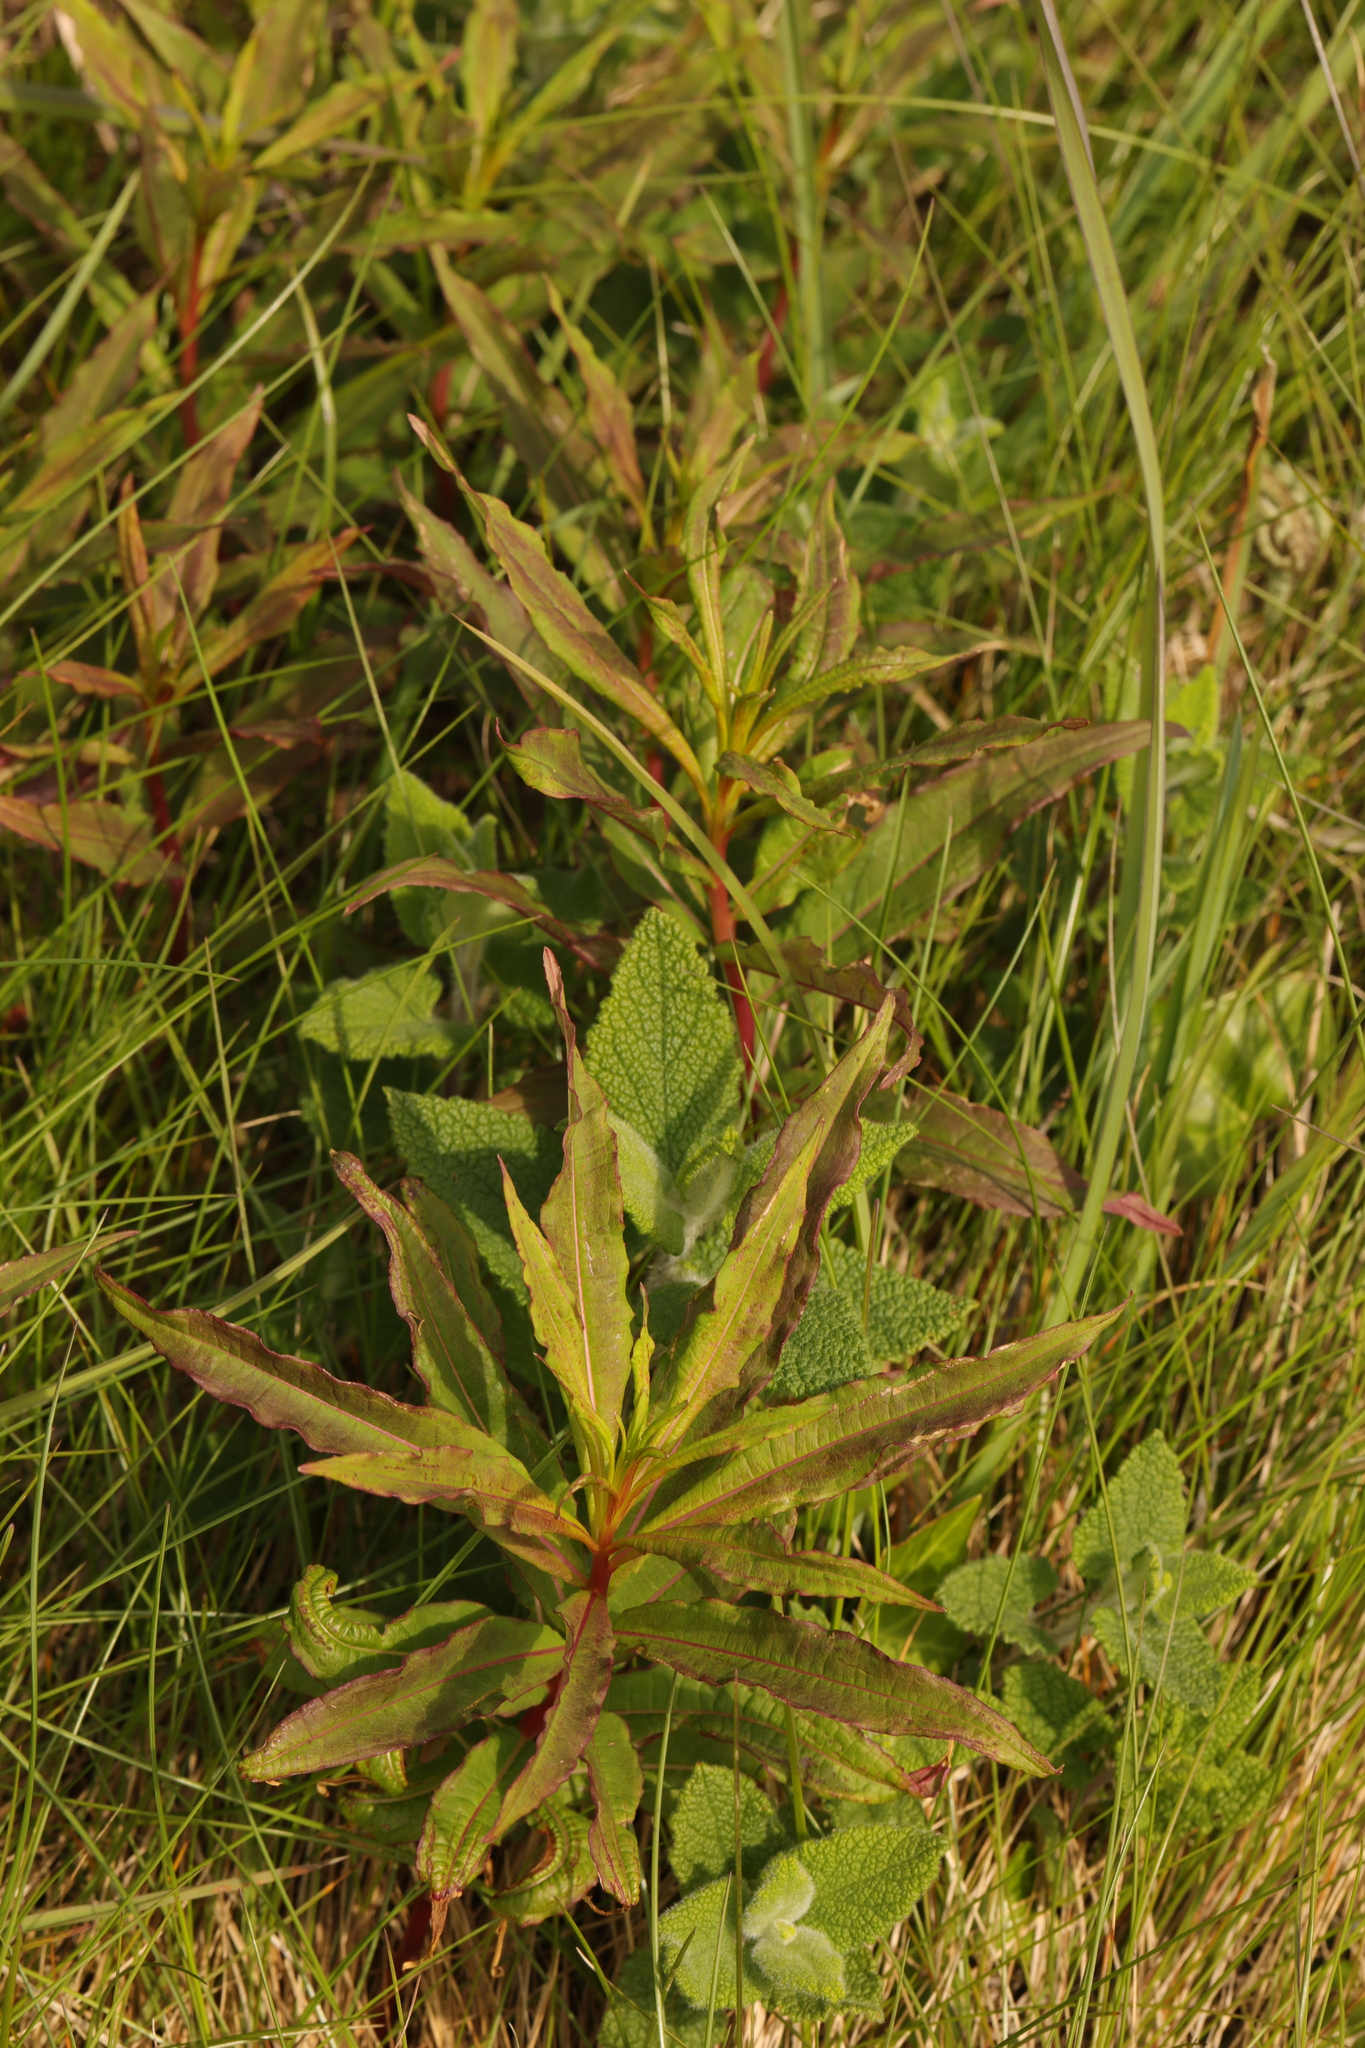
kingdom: Plantae
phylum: Tracheophyta
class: Magnoliopsida
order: Myrtales
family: Onagraceae
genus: Chamaenerion
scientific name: Chamaenerion angustifolium
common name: Fireweed
